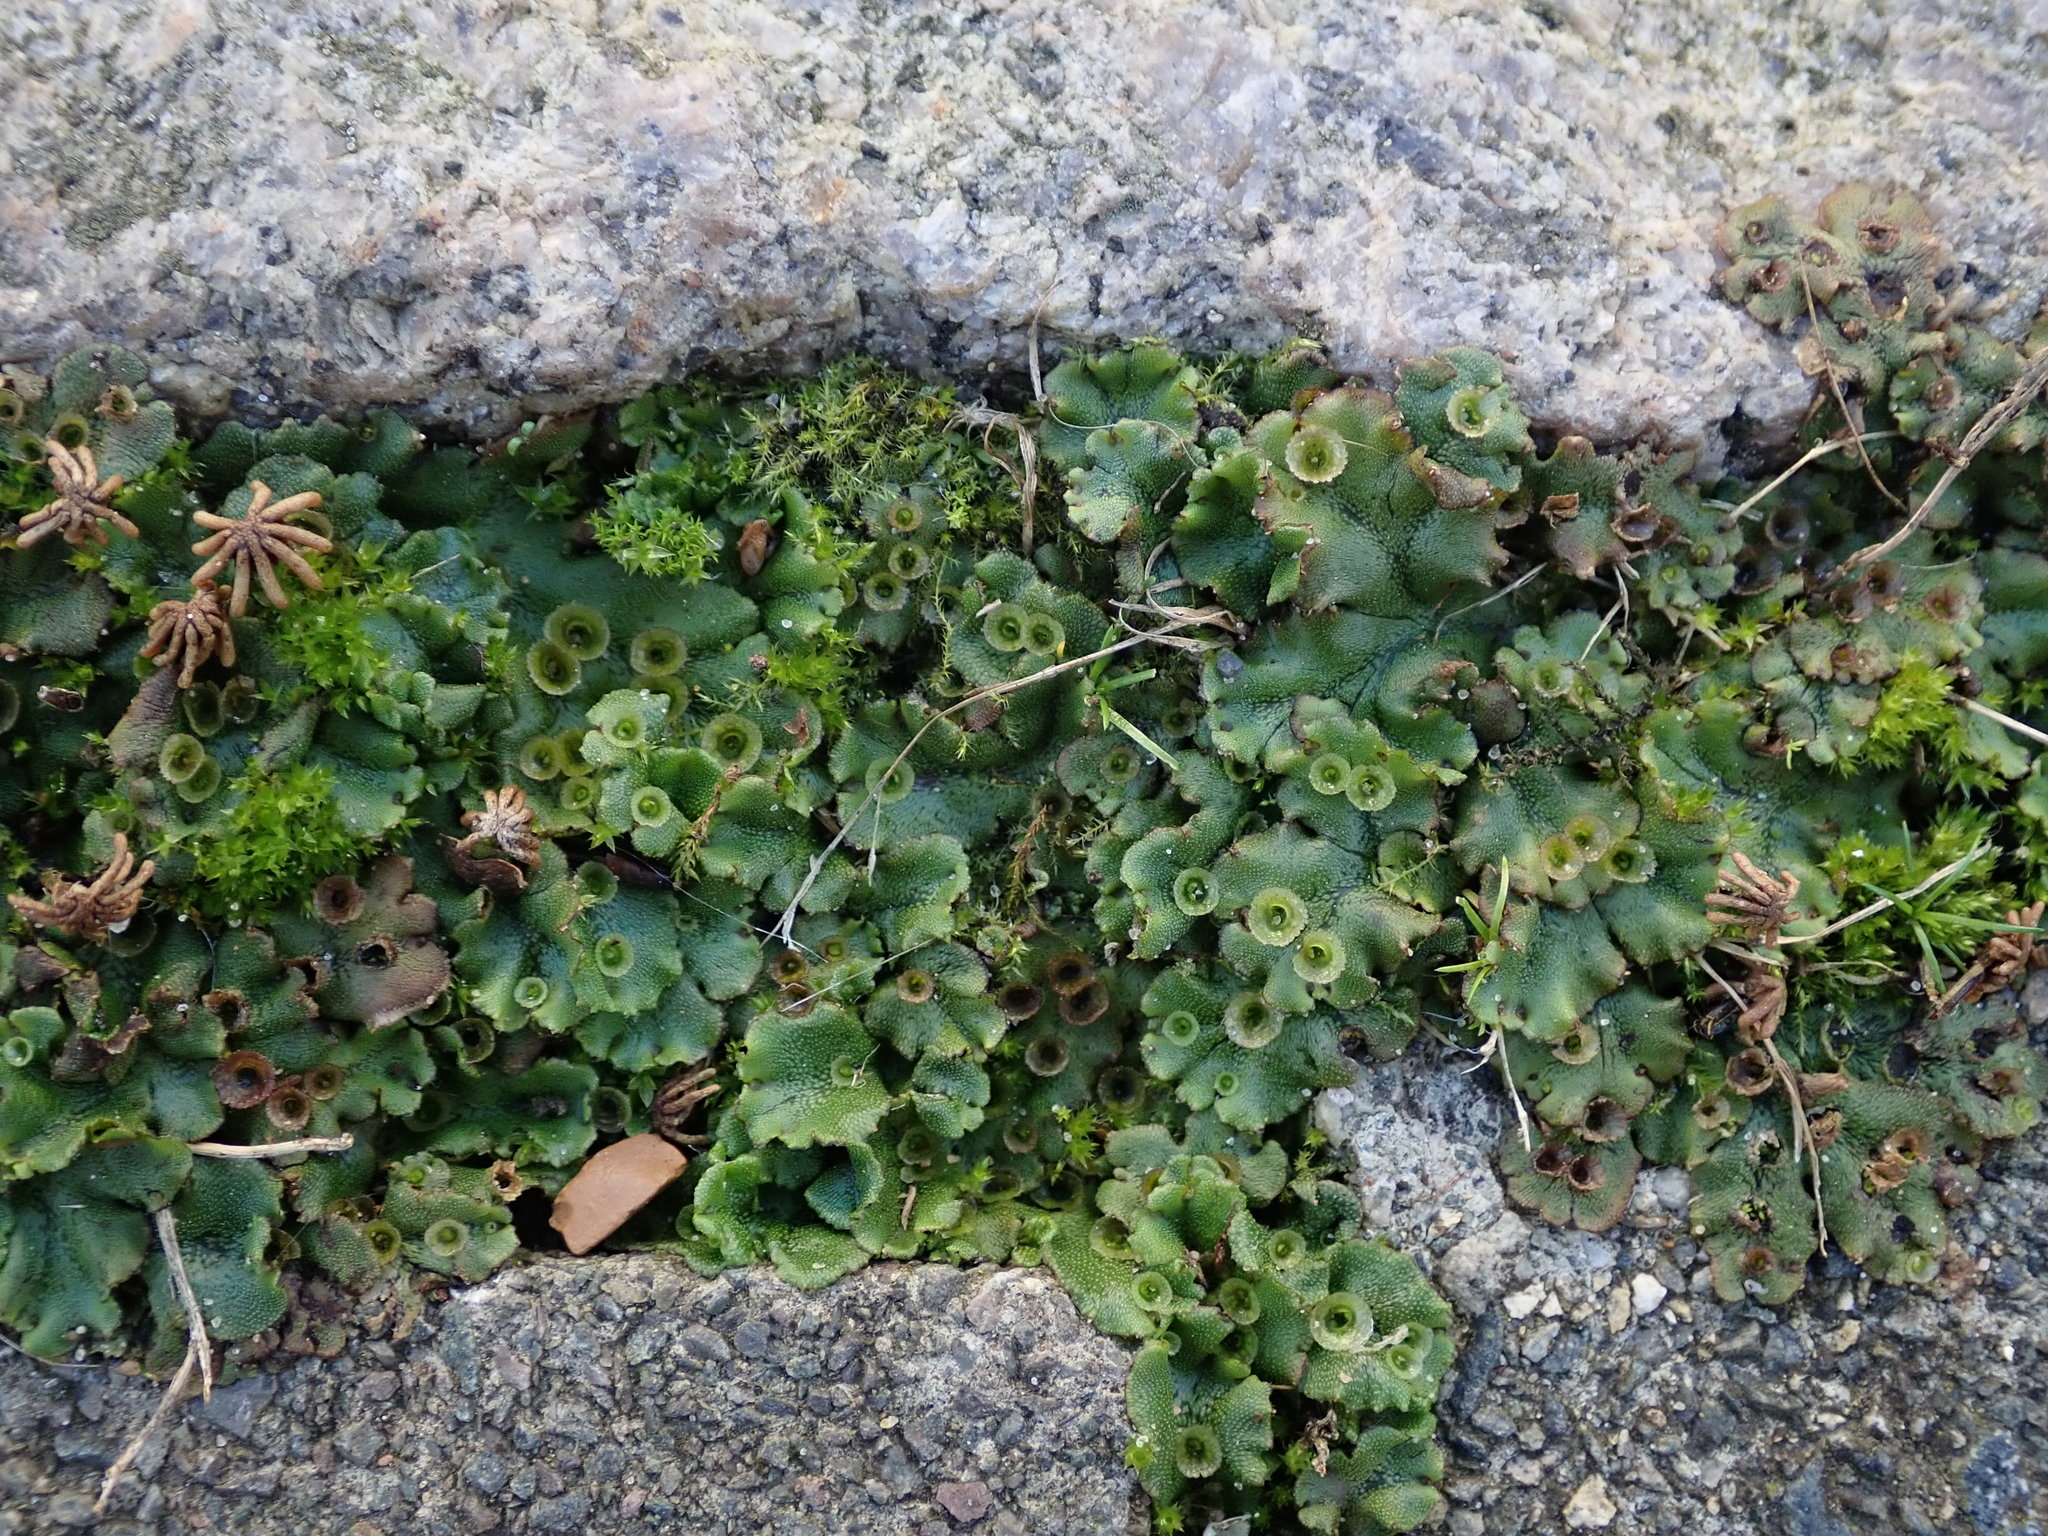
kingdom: Plantae
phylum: Marchantiophyta
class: Marchantiopsida
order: Marchantiales
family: Marchantiaceae
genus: Marchantia
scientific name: Marchantia polymorpha
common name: Common liverwort
